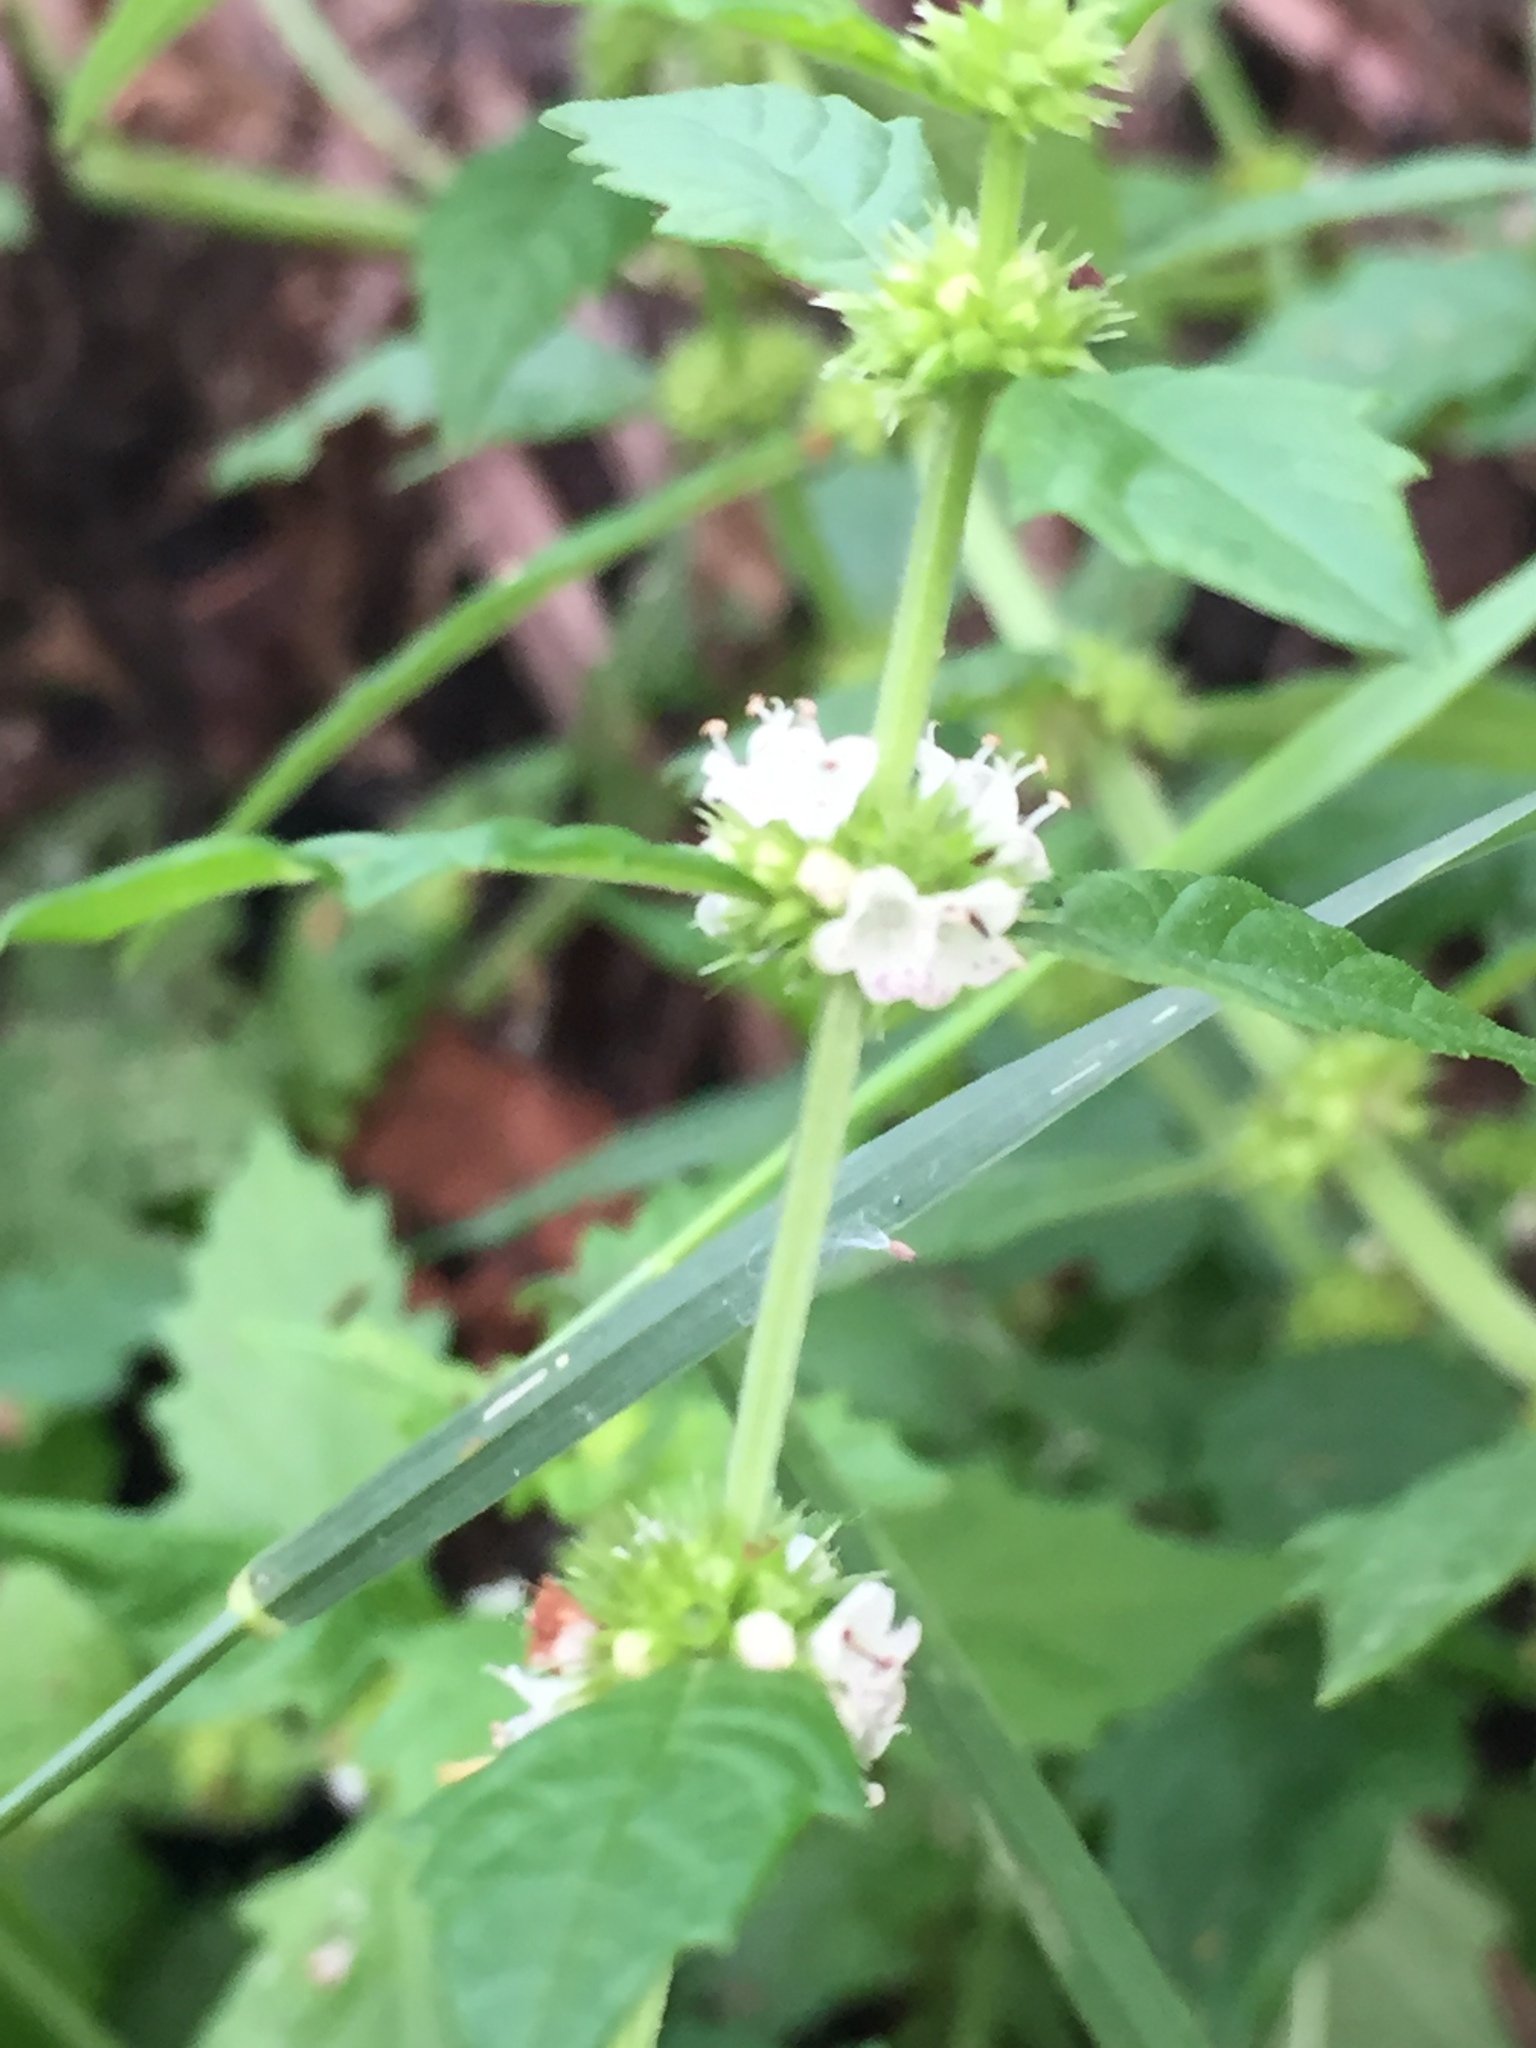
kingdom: Plantae
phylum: Tracheophyta
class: Magnoliopsida
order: Lamiales
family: Lamiaceae
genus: Lycopus
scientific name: Lycopus europaeus
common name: European bugleweed
